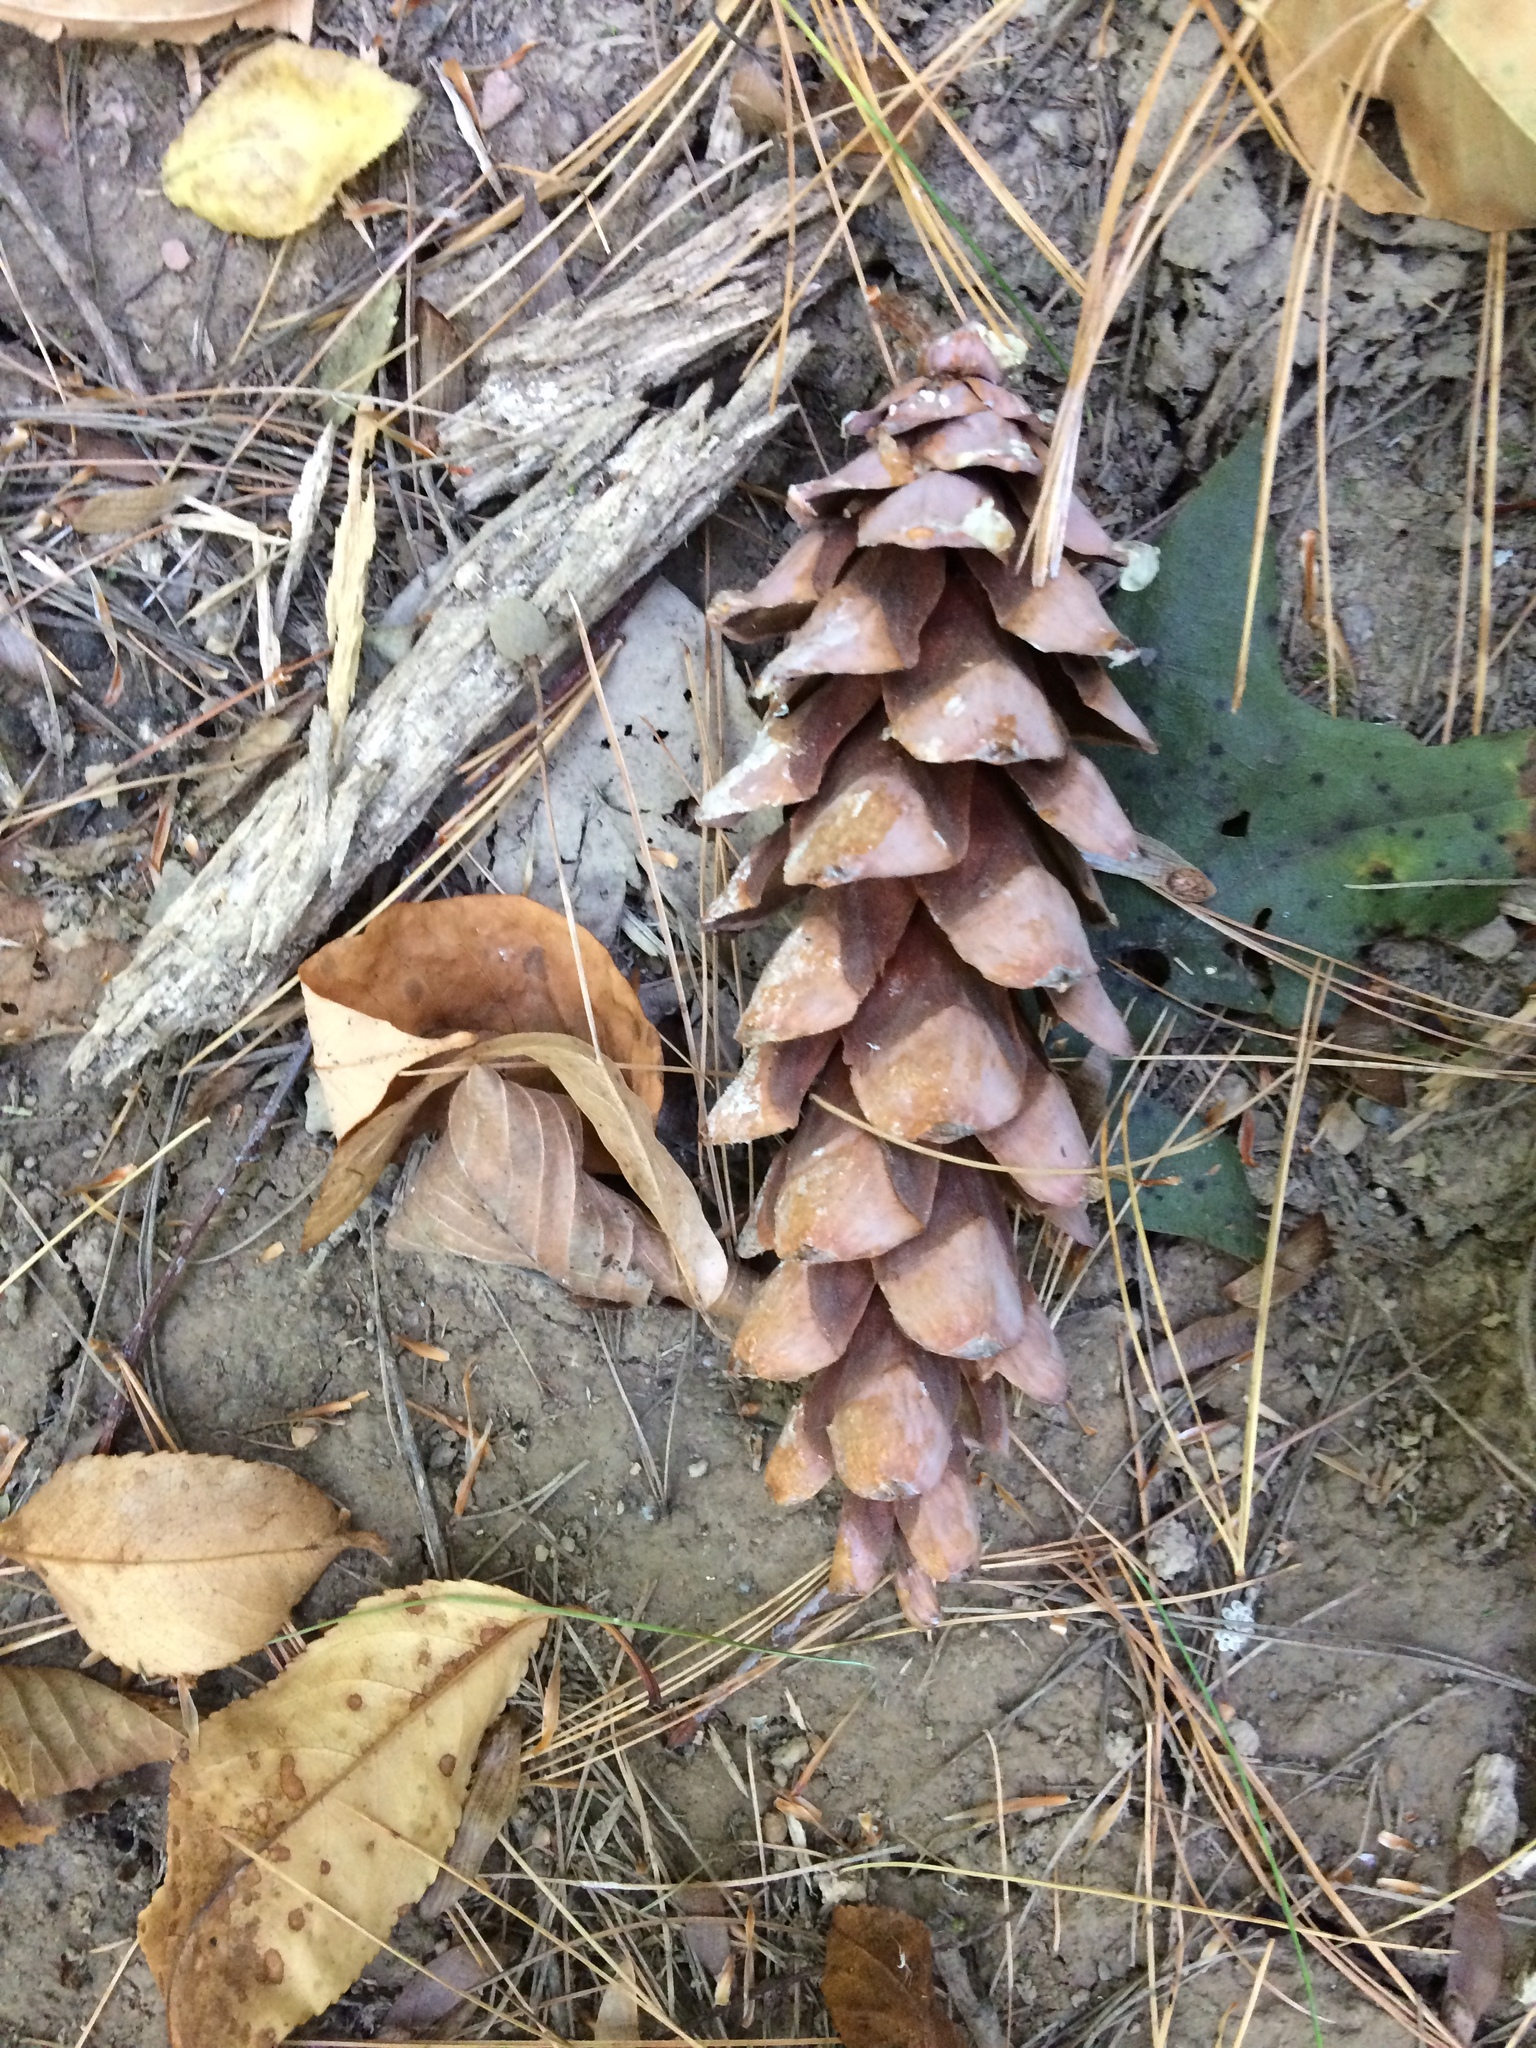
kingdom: Plantae
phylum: Tracheophyta
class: Pinopsida
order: Pinales
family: Pinaceae
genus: Pinus
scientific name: Pinus strobus
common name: Weymouth pine
